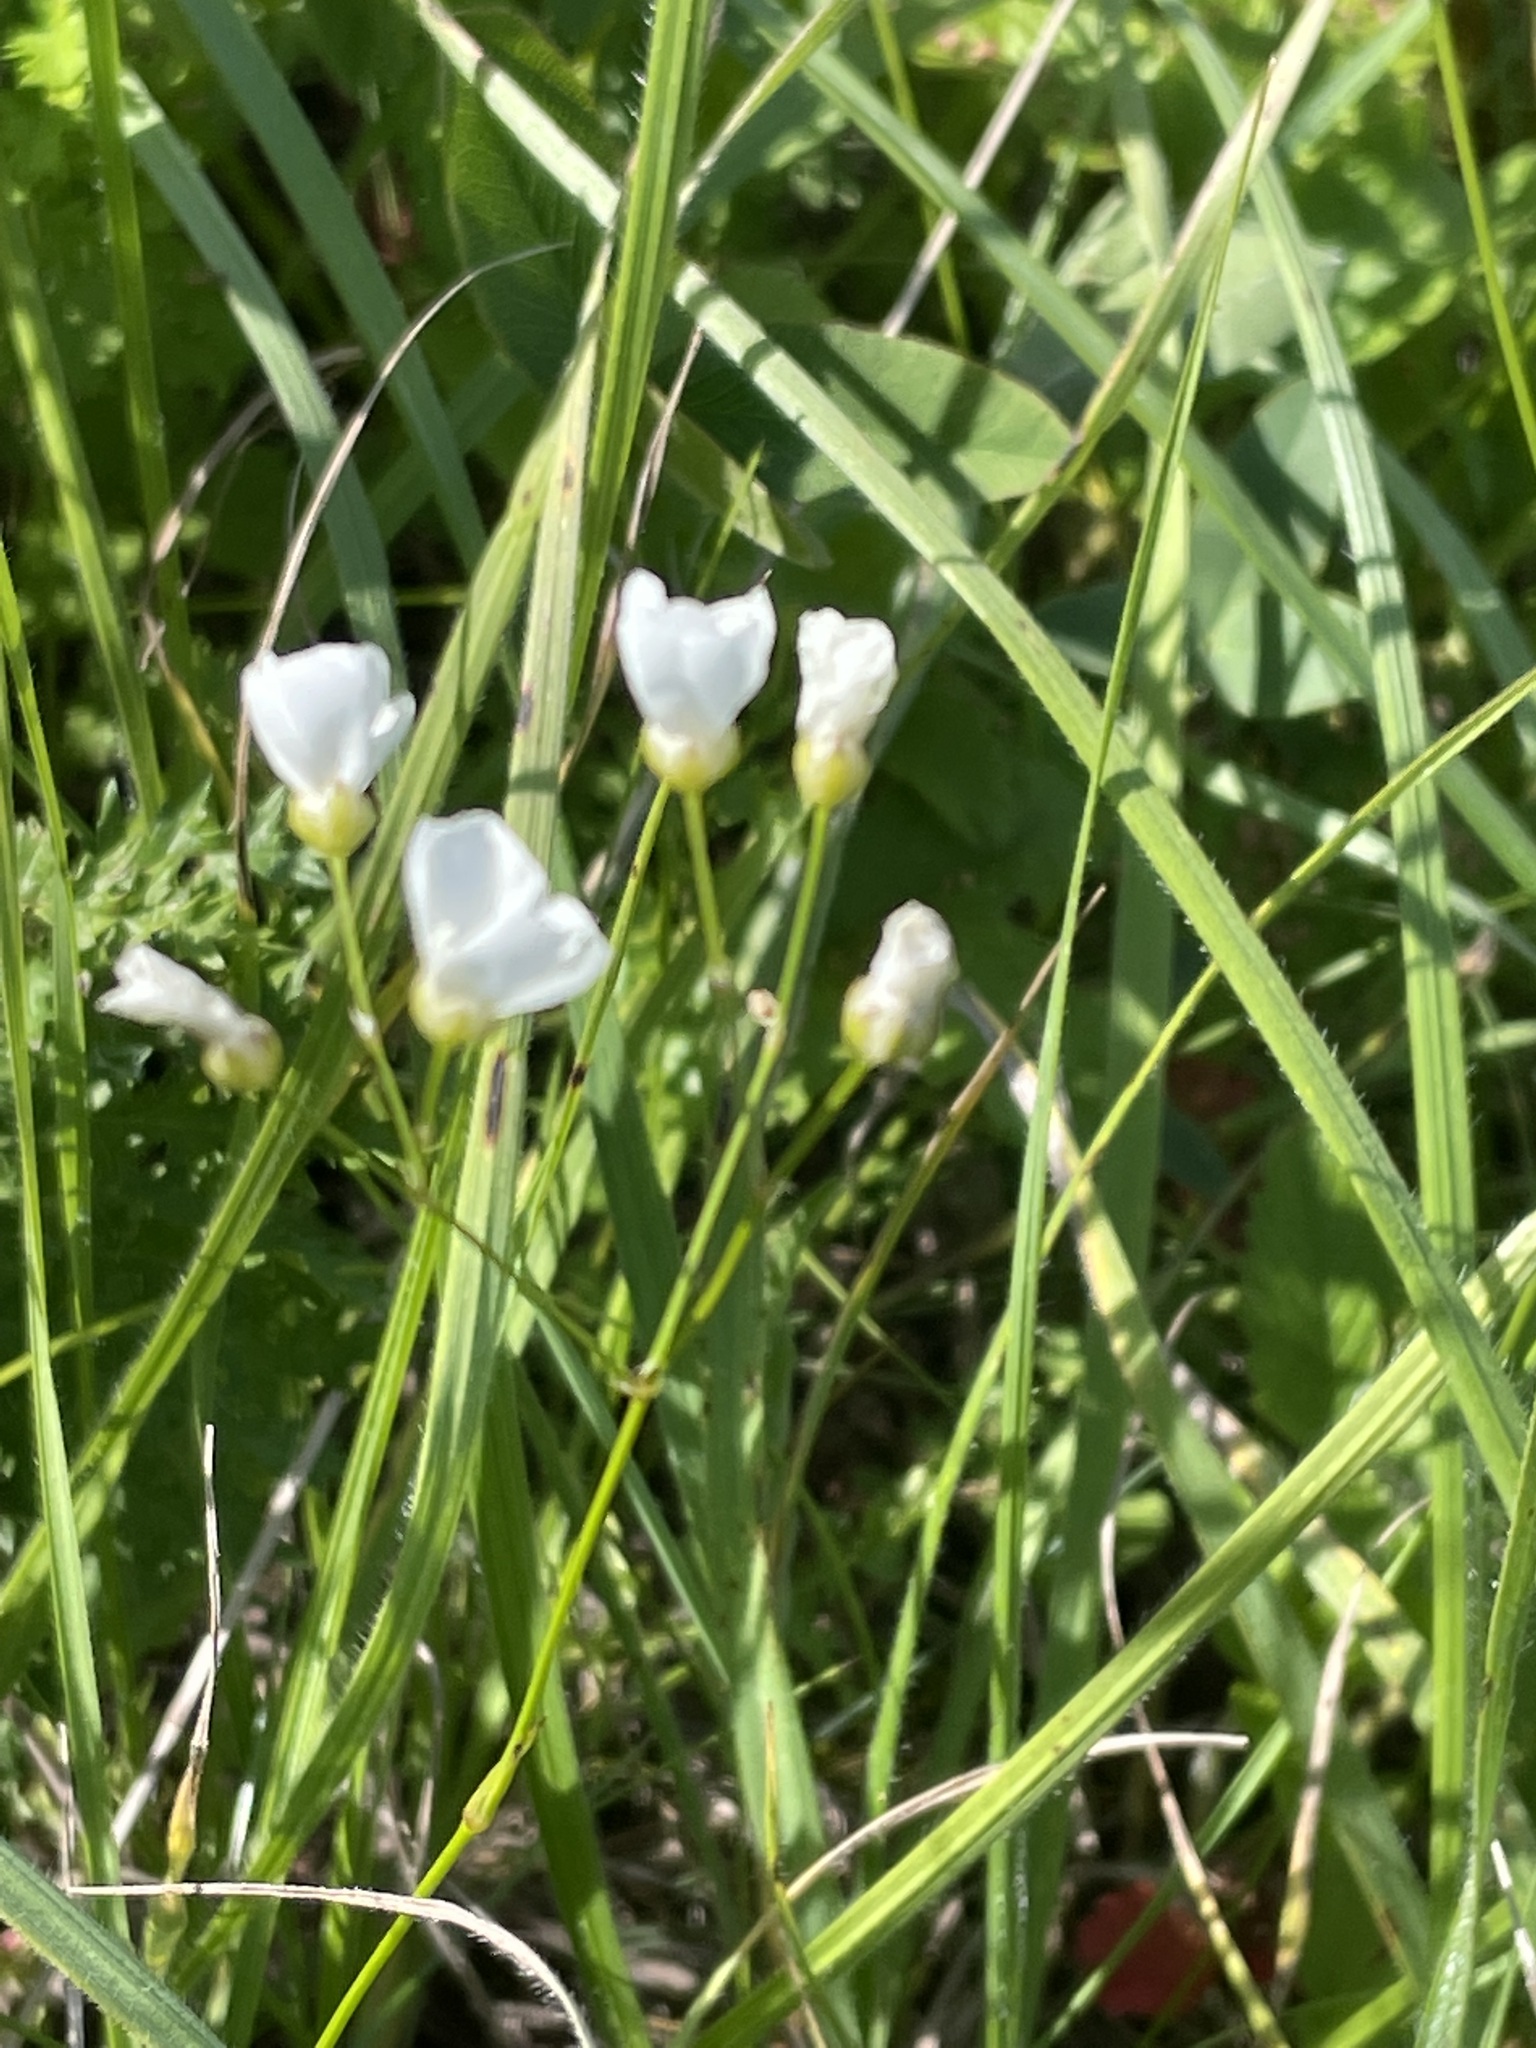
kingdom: Plantae
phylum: Tracheophyta
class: Magnoliopsida
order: Caryophyllales
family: Caryophyllaceae
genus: Eremogone
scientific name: Eremogone saxatilis
